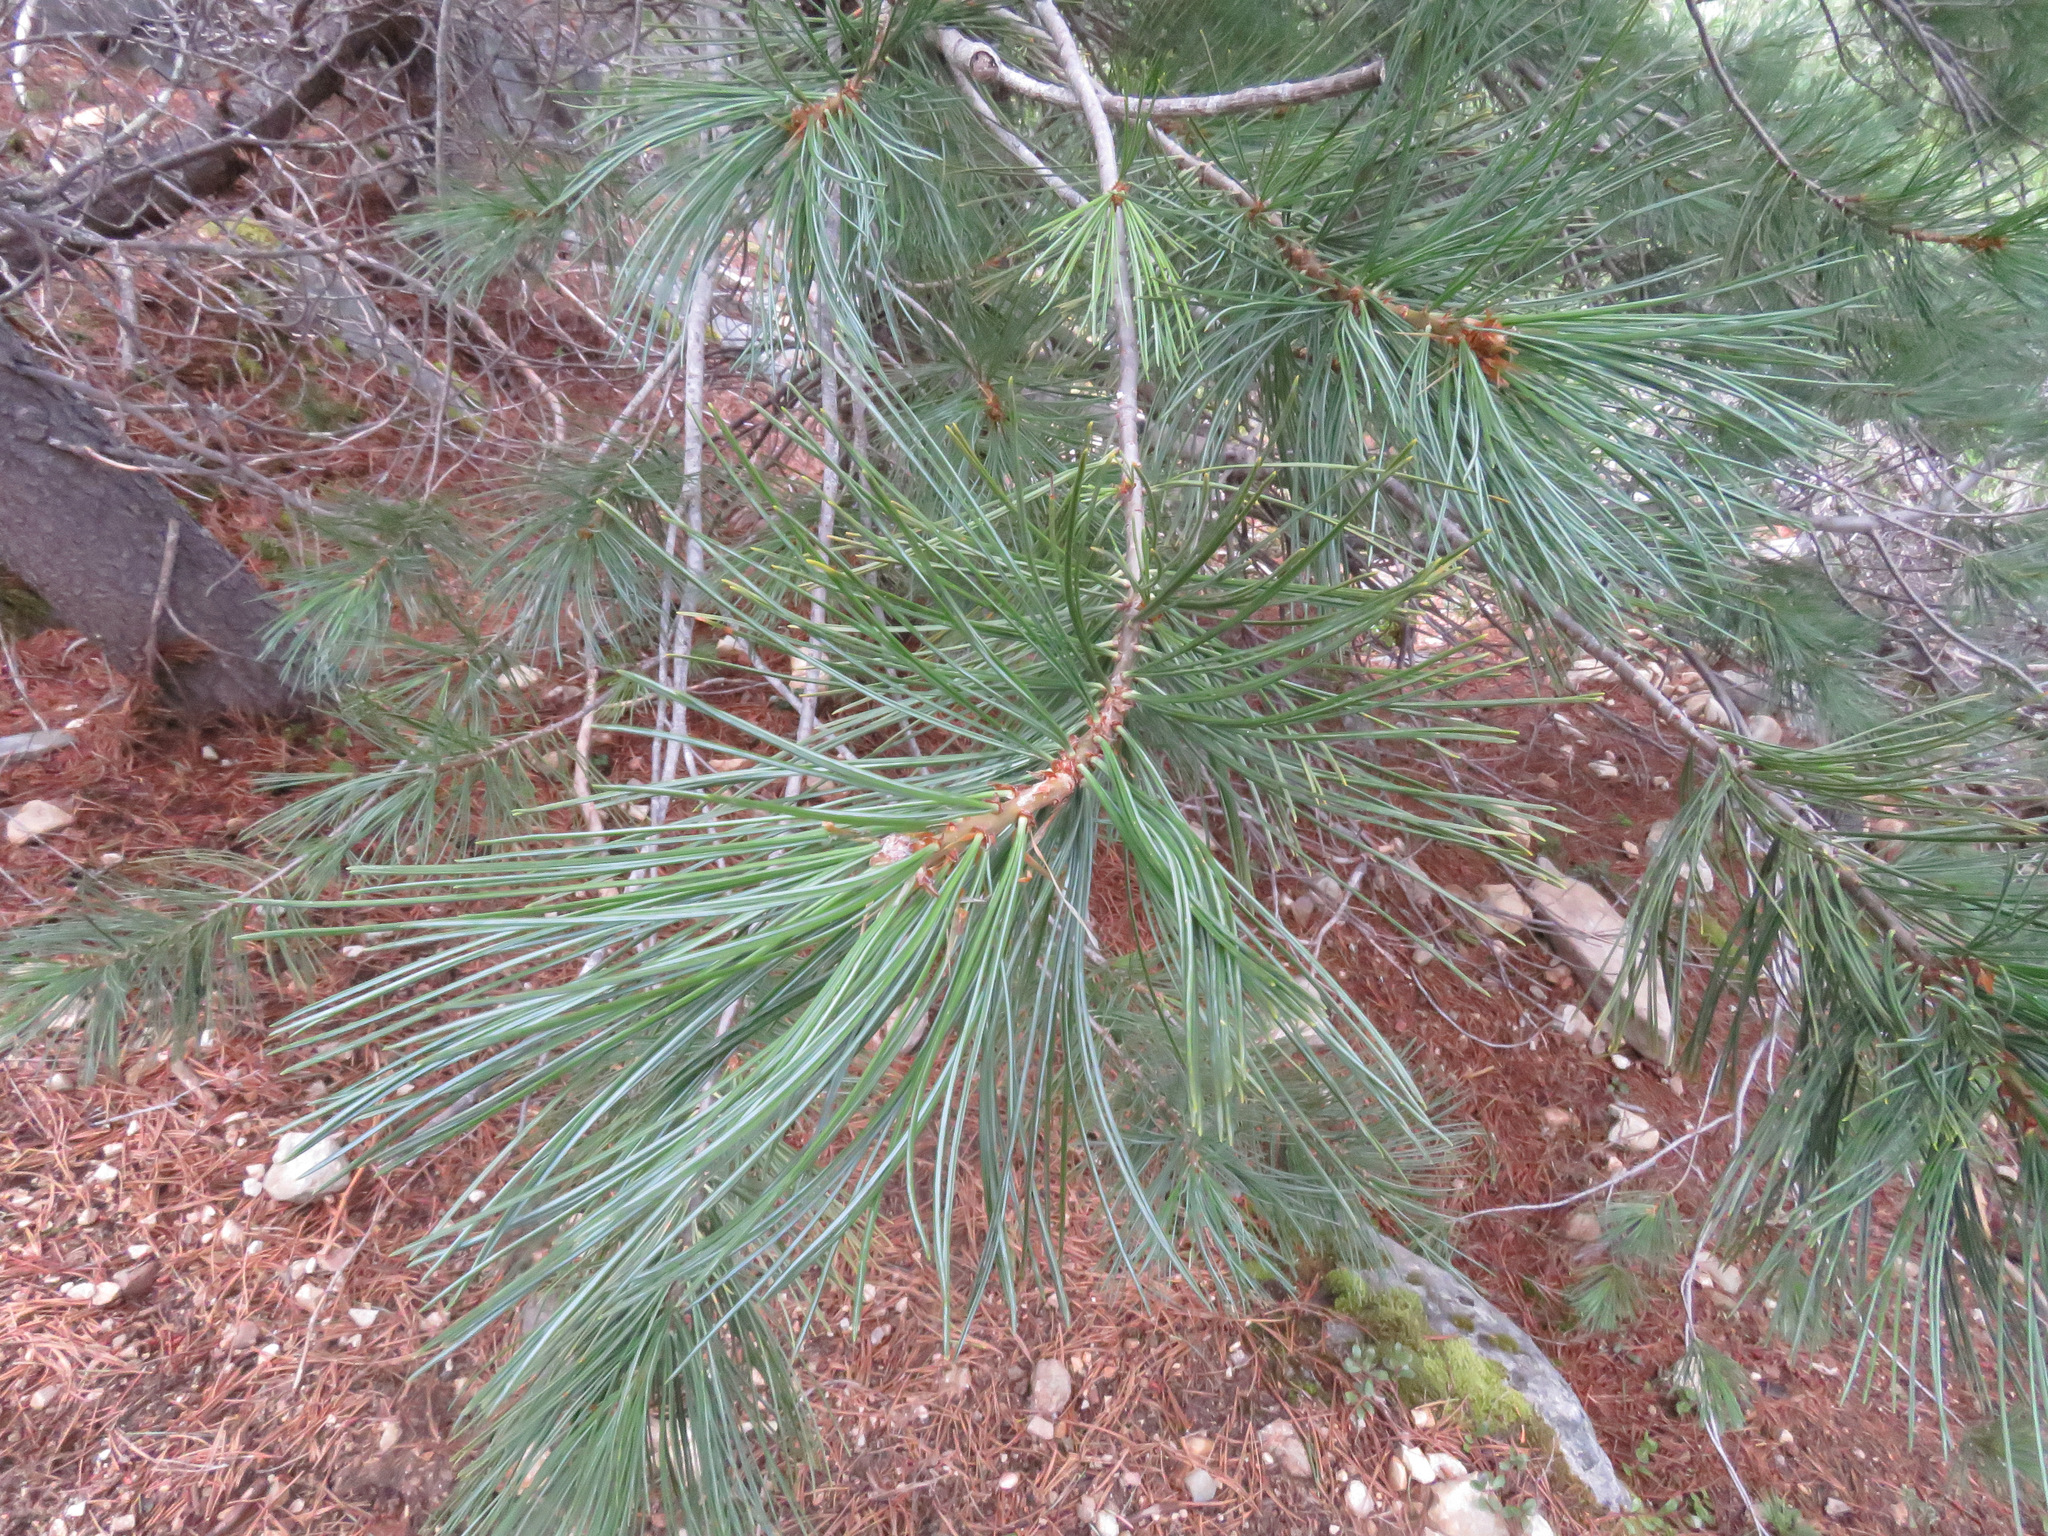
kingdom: Plantae
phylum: Tracheophyta
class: Pinopsida
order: Pinales
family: Pinaceae
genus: Pinus
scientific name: Pinus monticola
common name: Western white pine
